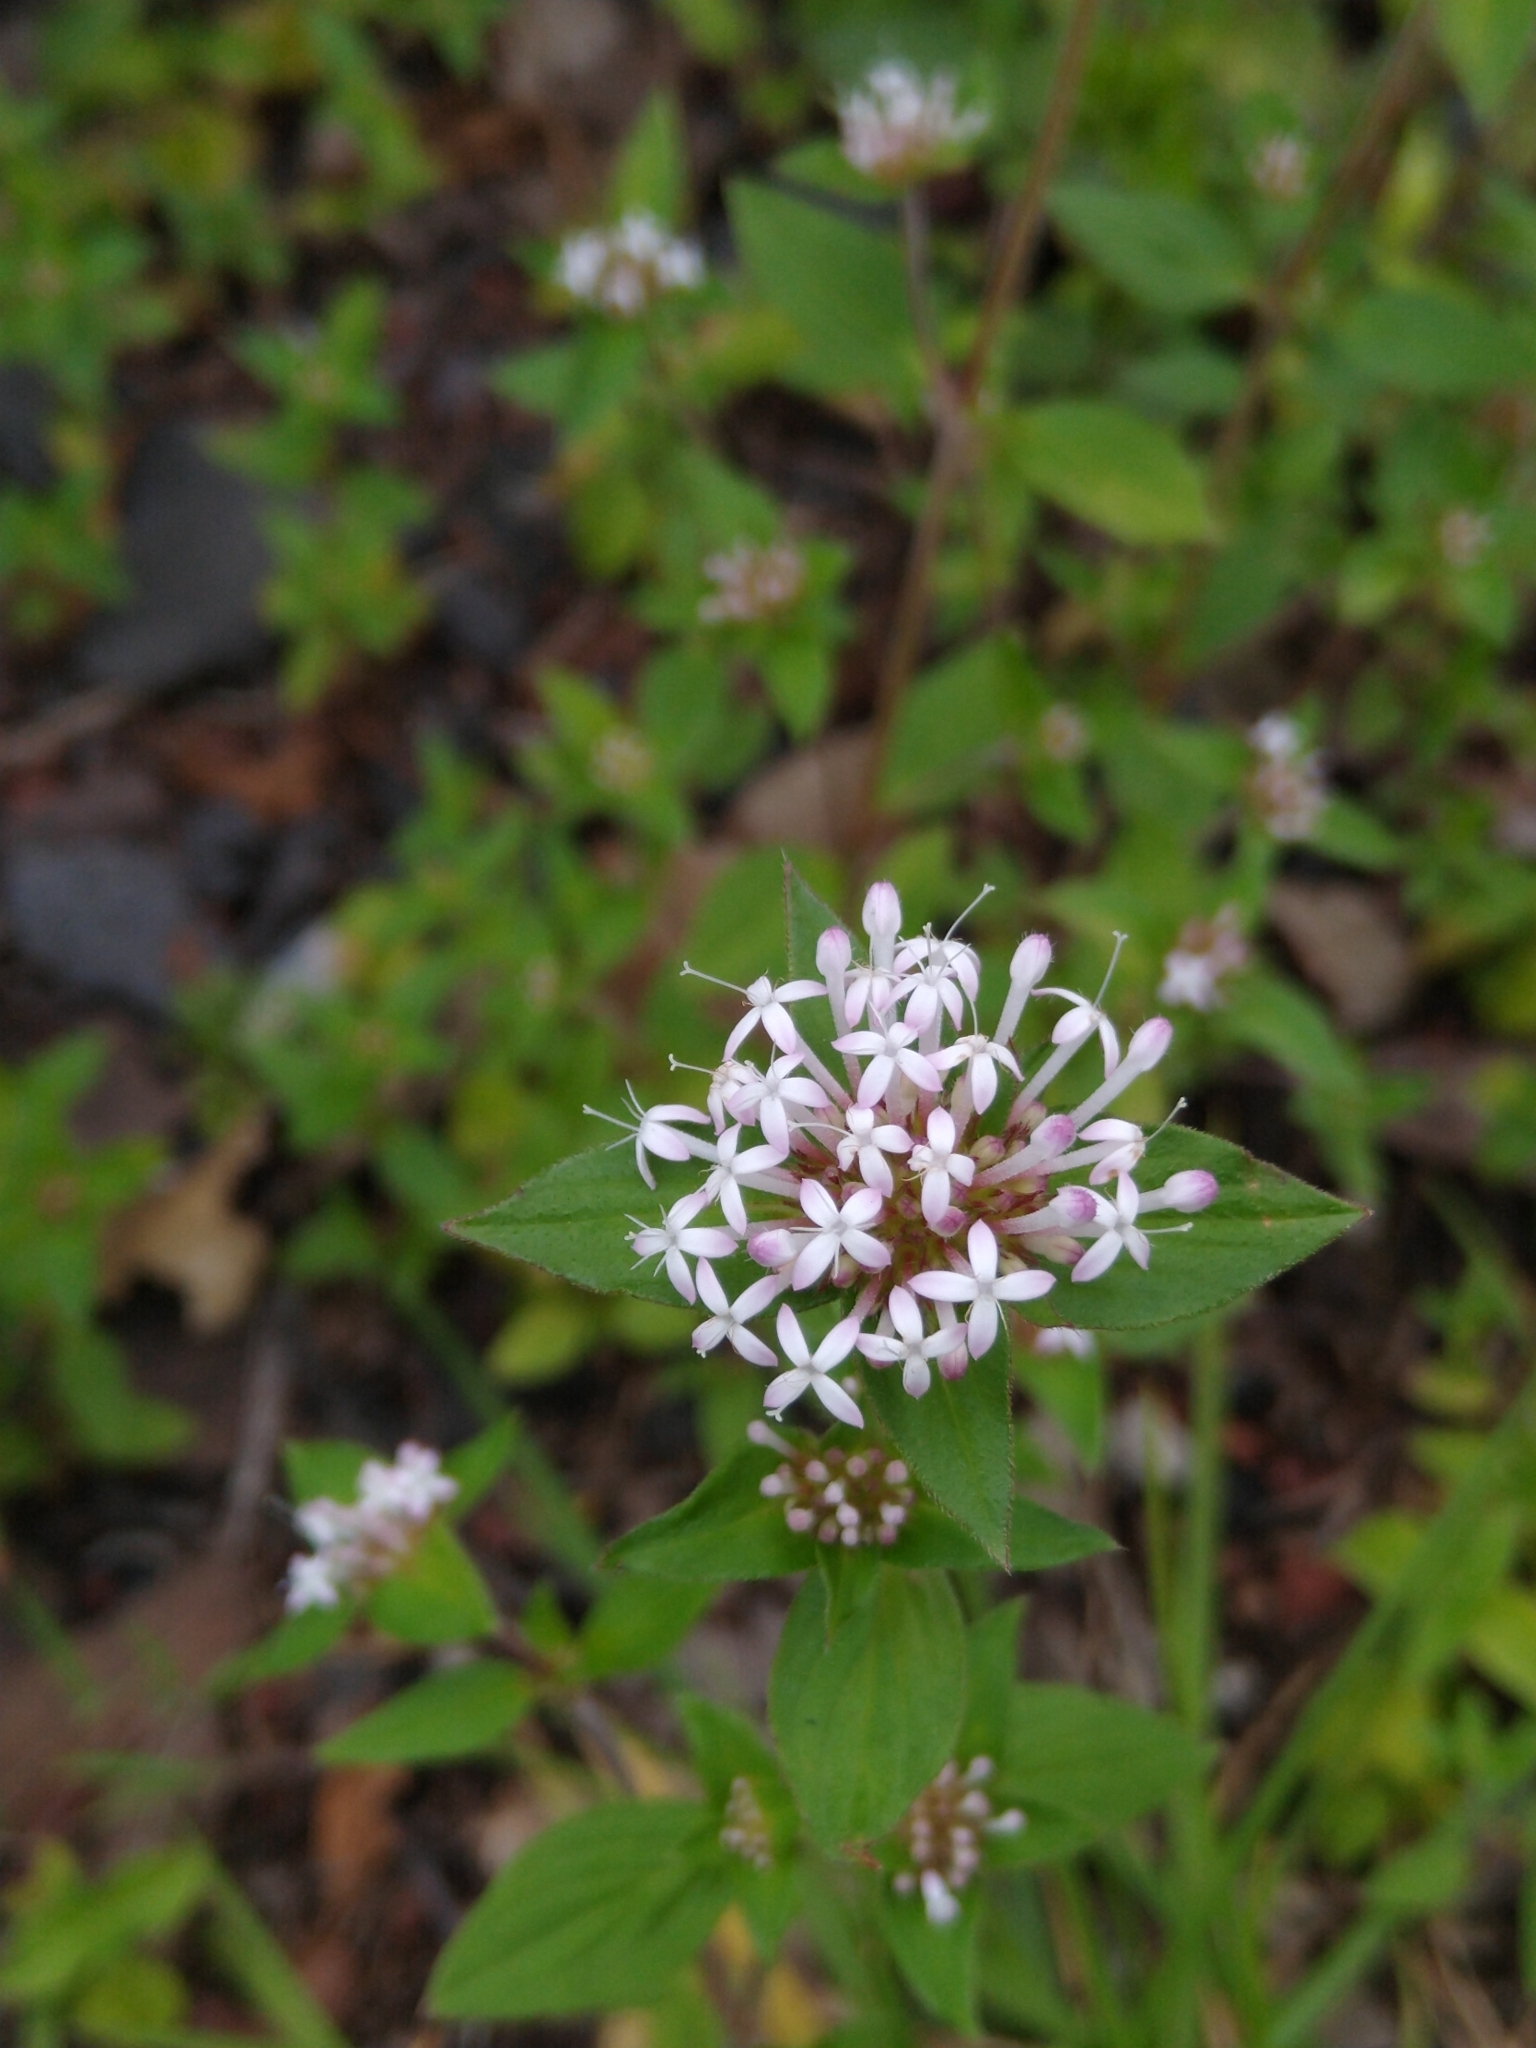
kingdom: Plantae
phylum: Tracheophyta
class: Magnoliopsida
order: Gentianales
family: Rubiaceae
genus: Crusea
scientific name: Crusea longiflora
